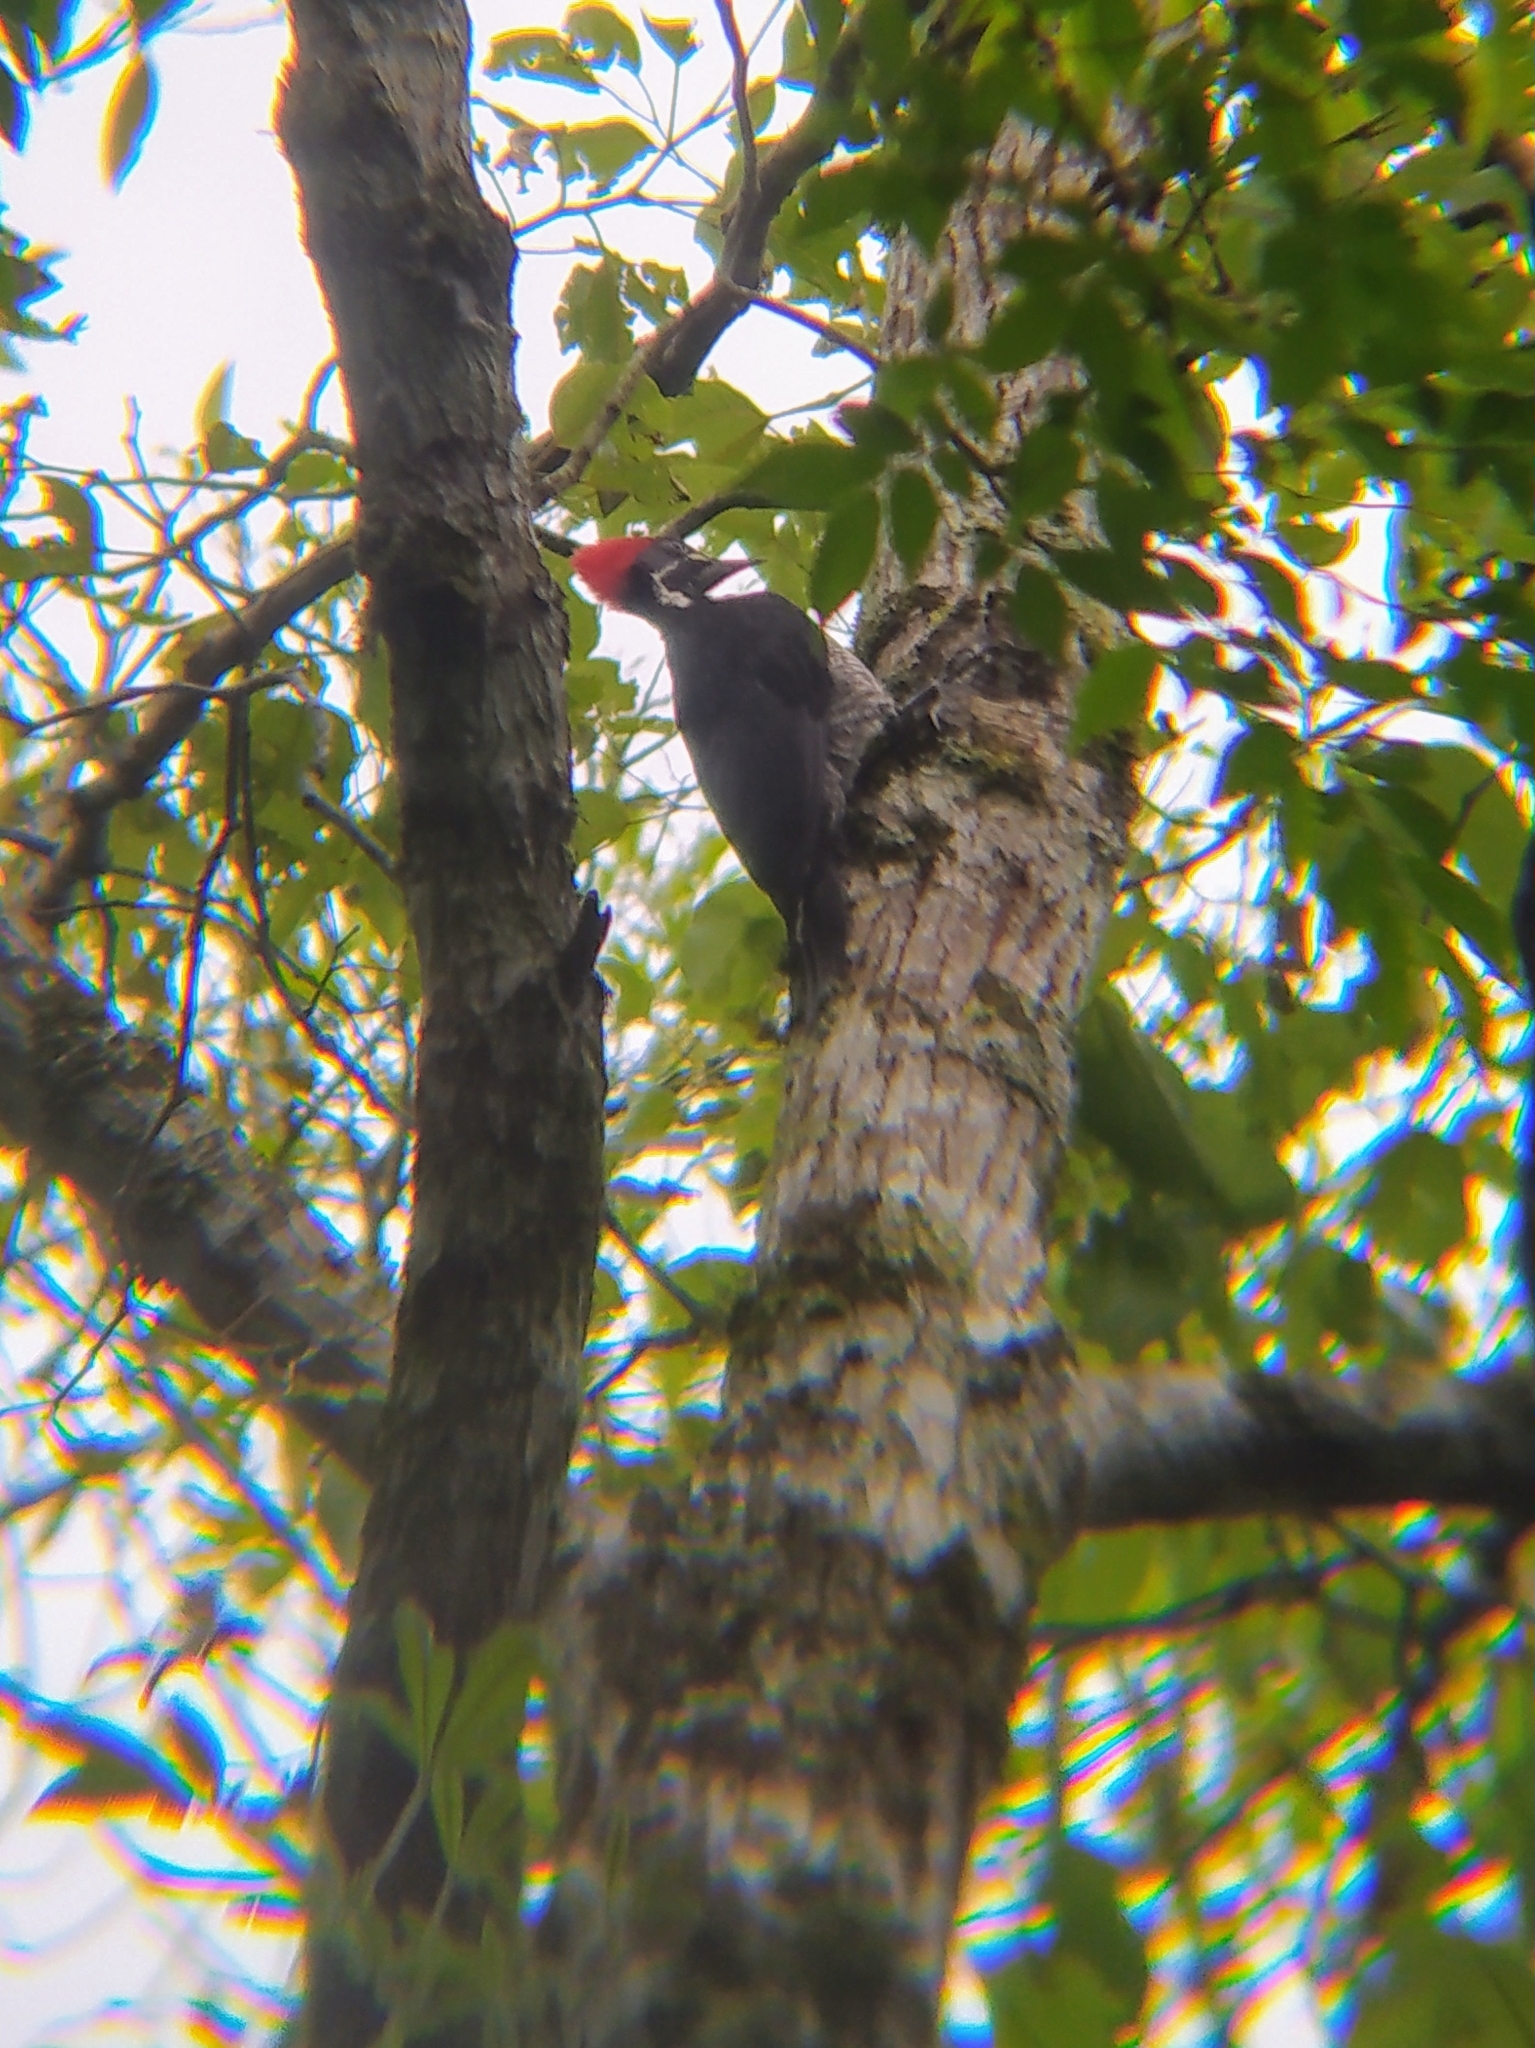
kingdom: Animalia
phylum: Chordata
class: Aves
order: Piciformes
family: Picidae
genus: Dryocopus
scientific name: Dryocopus lineatus
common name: Lineated woodpecker
